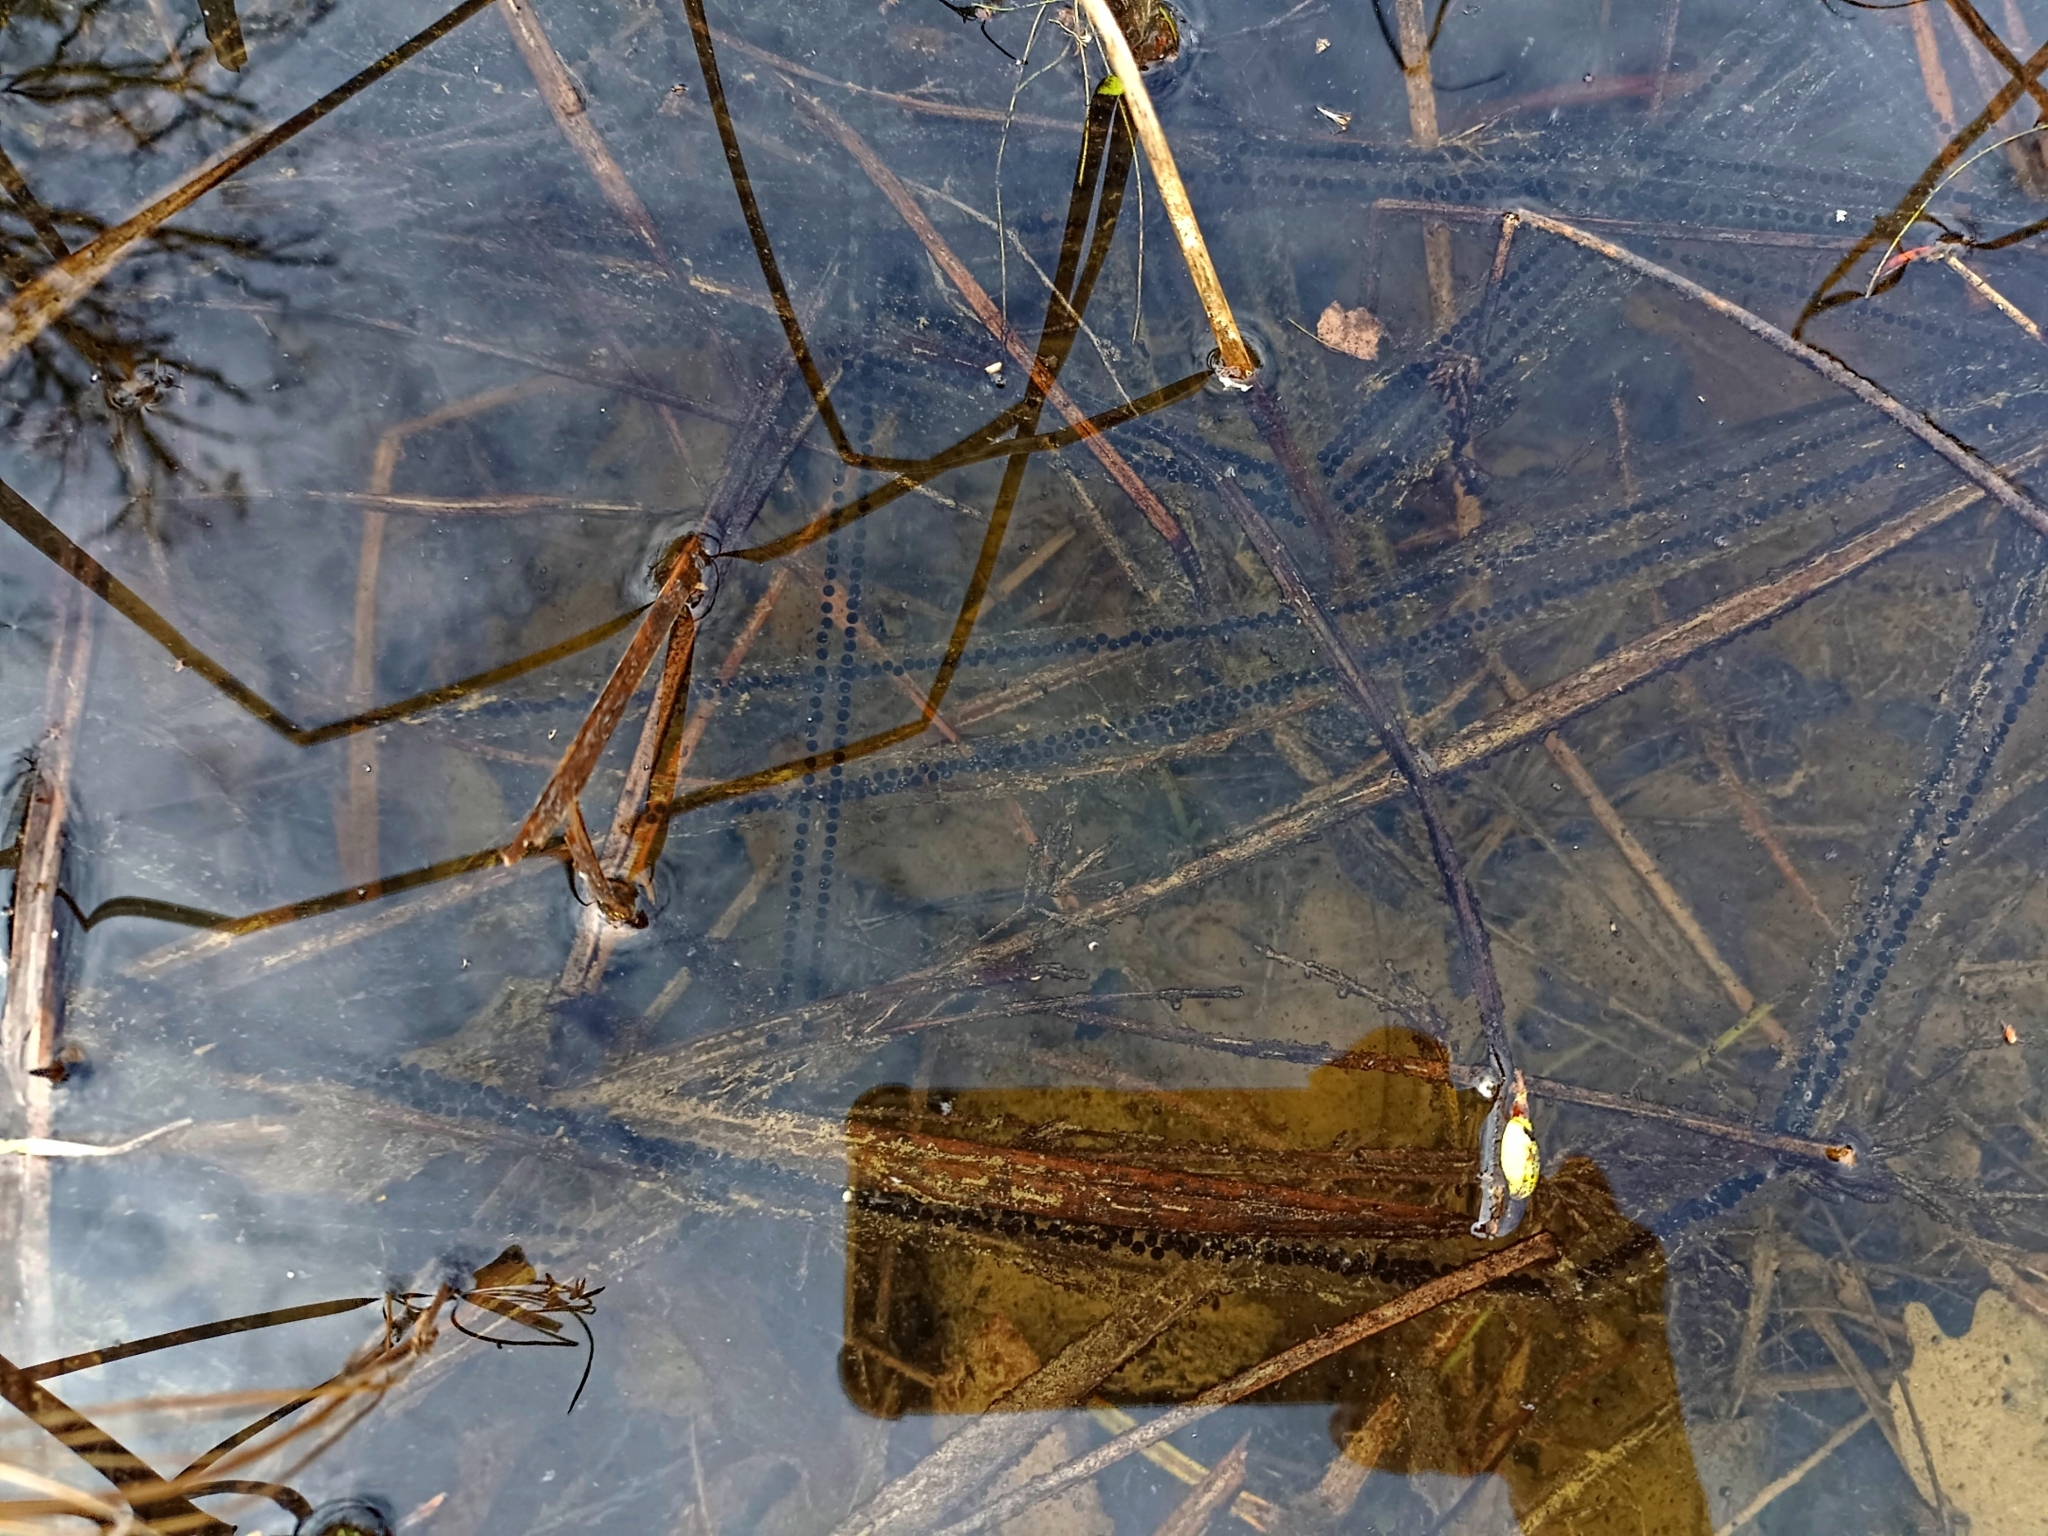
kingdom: Animalia
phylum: Chordata
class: Amphibia
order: Anura
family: Bufonidae
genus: Bufo
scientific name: Bufo bufo
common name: Common toad
